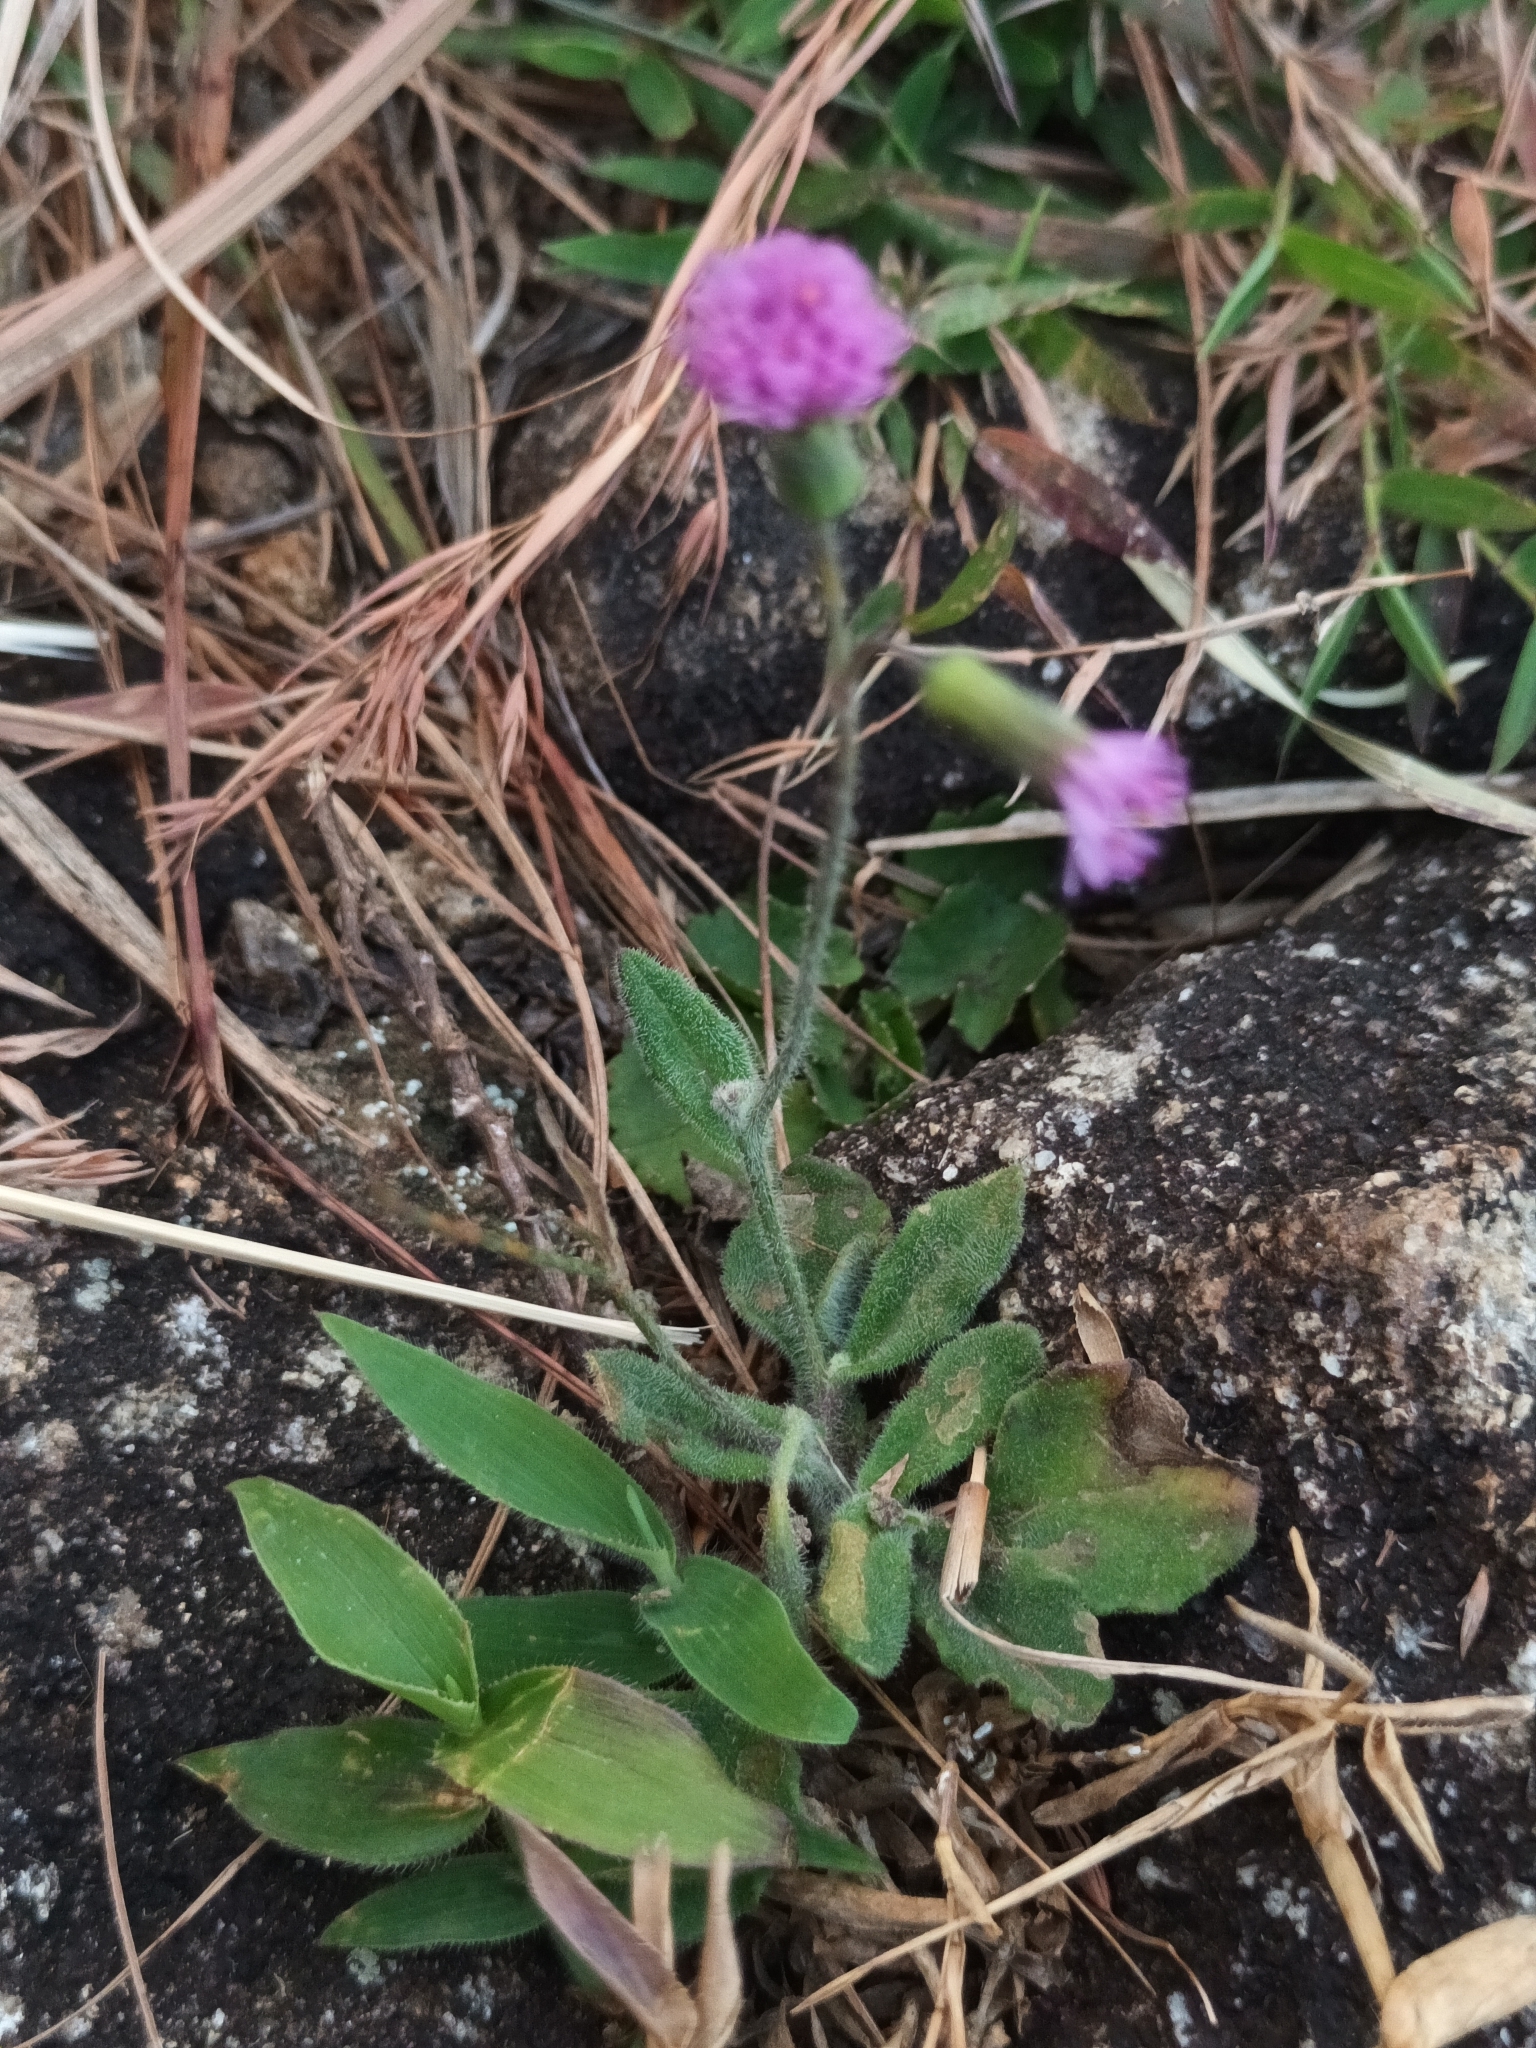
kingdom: Plantae
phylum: Tracheophyta
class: Magnoliopsida
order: Asterales
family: Asteraceae
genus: Cyanthillium
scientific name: Cyanthillium cinereum
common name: Little ironweed
